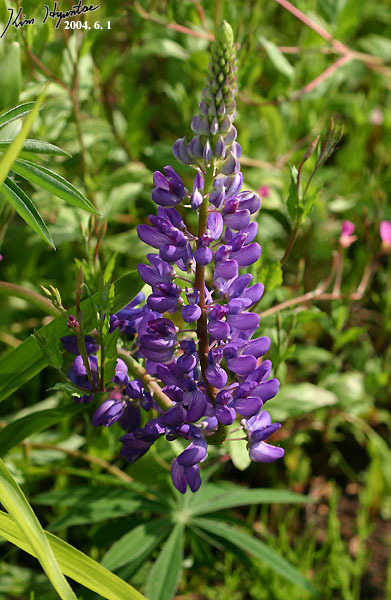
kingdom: Plantae
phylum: Tracheophyta
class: Magnoliopsida
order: Fabales
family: Fabaceae
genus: Lupinus
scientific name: Lupinus polyphyllus
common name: Garden lupin
